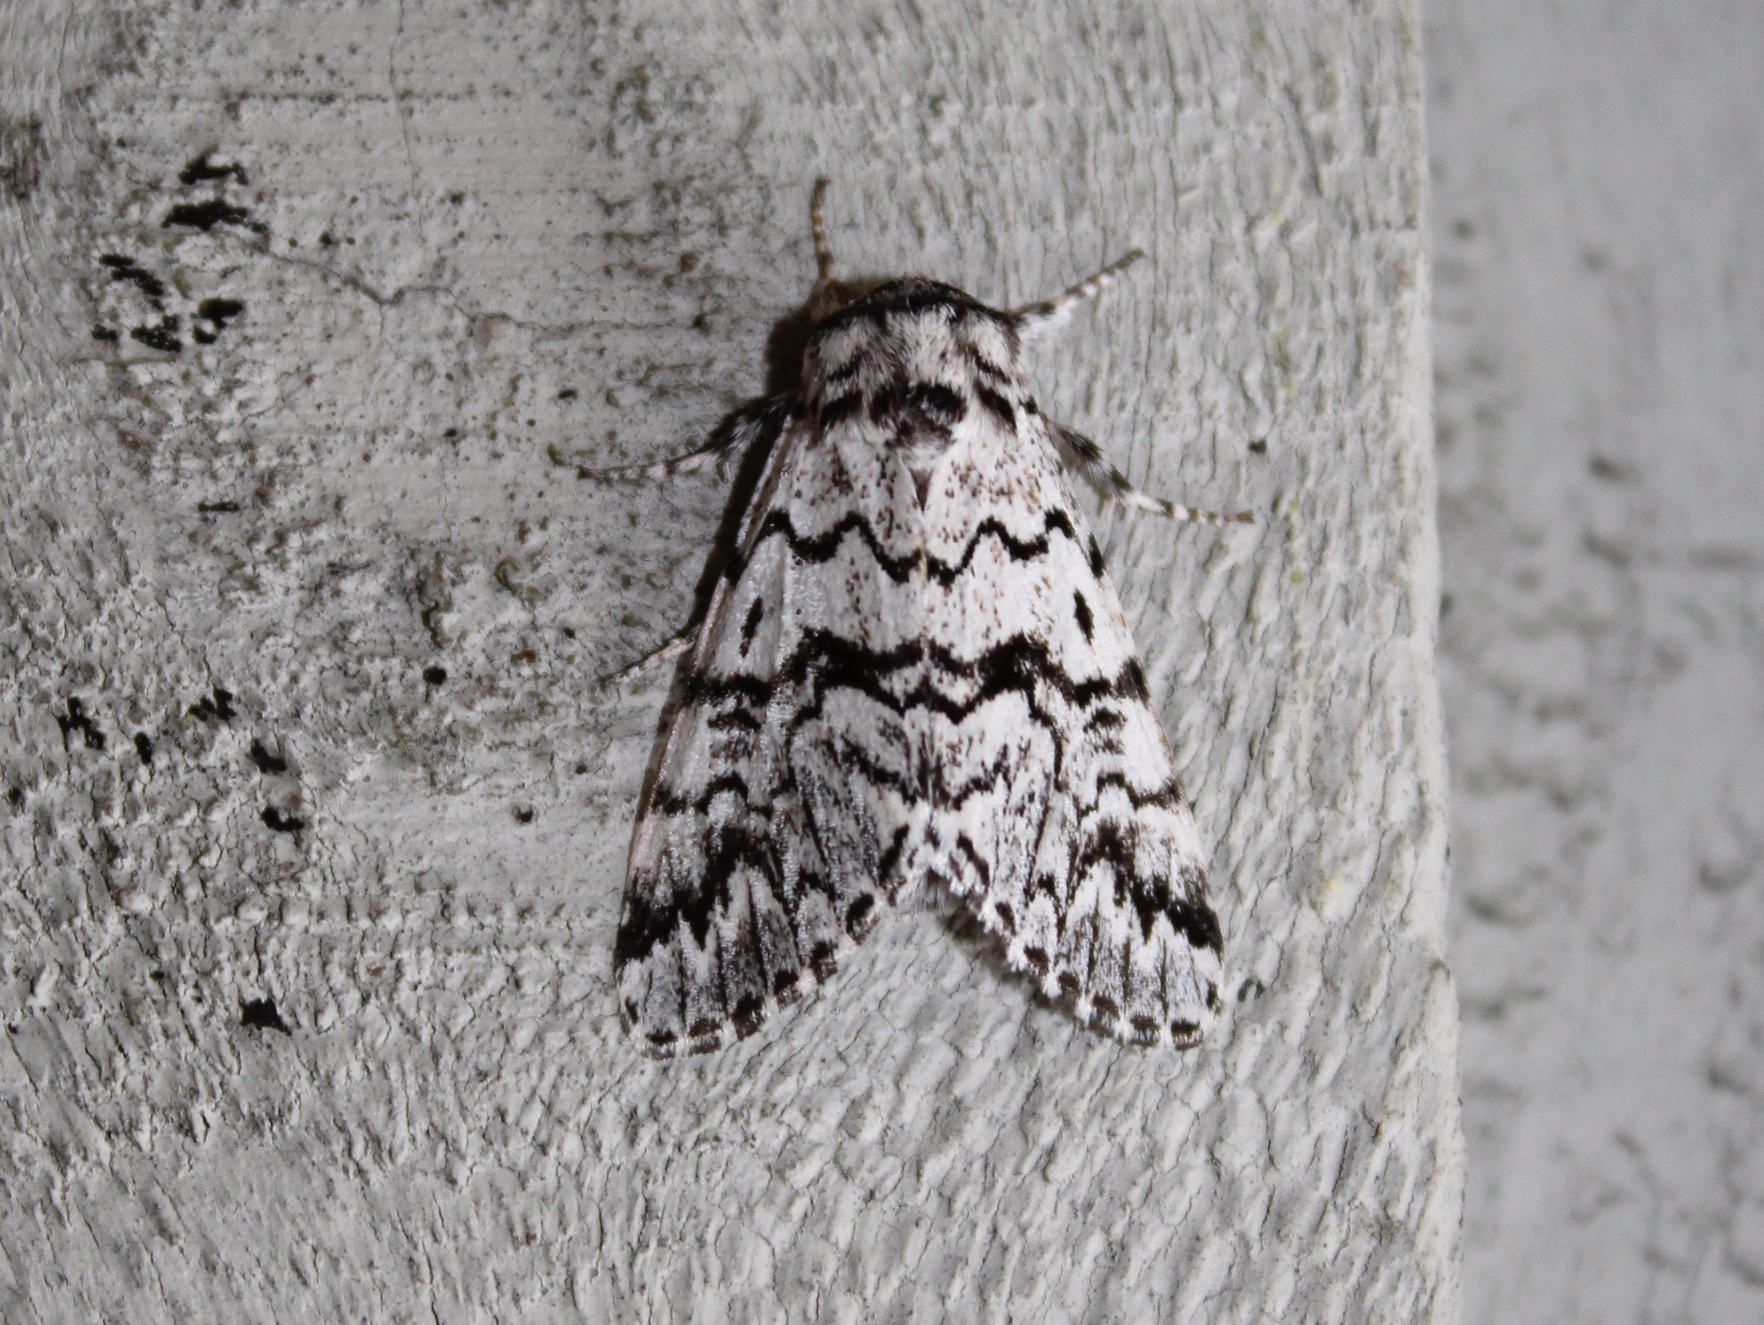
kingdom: Animalia
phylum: Arthropoda
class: Insecta
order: Lepidoptera
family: Noctuidae
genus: Panthea
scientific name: Panthea acronyctoides
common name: Black zigzag moth
